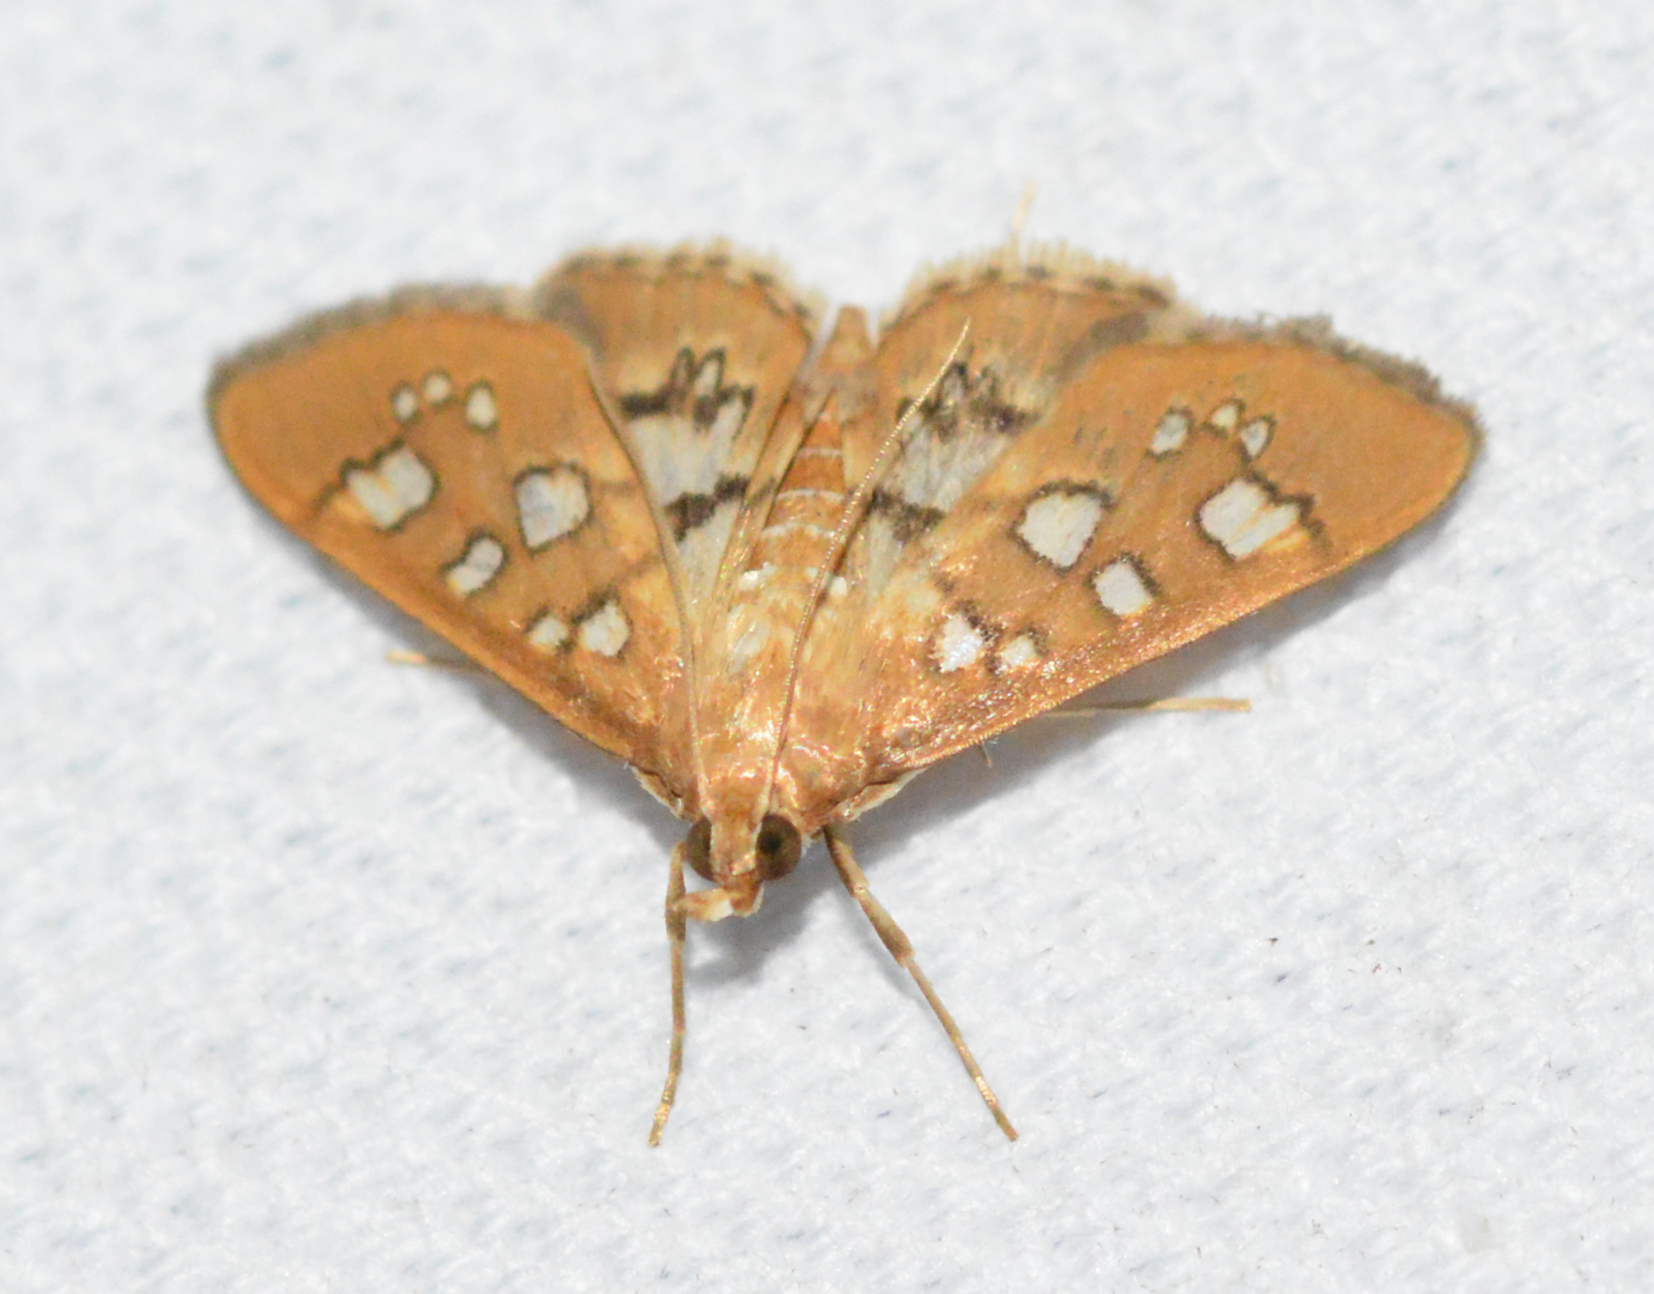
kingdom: Animalia
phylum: Arthropoda
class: Insecta
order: Lepidoptera
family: Crambidae
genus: Samea
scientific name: Samea baccatalis
